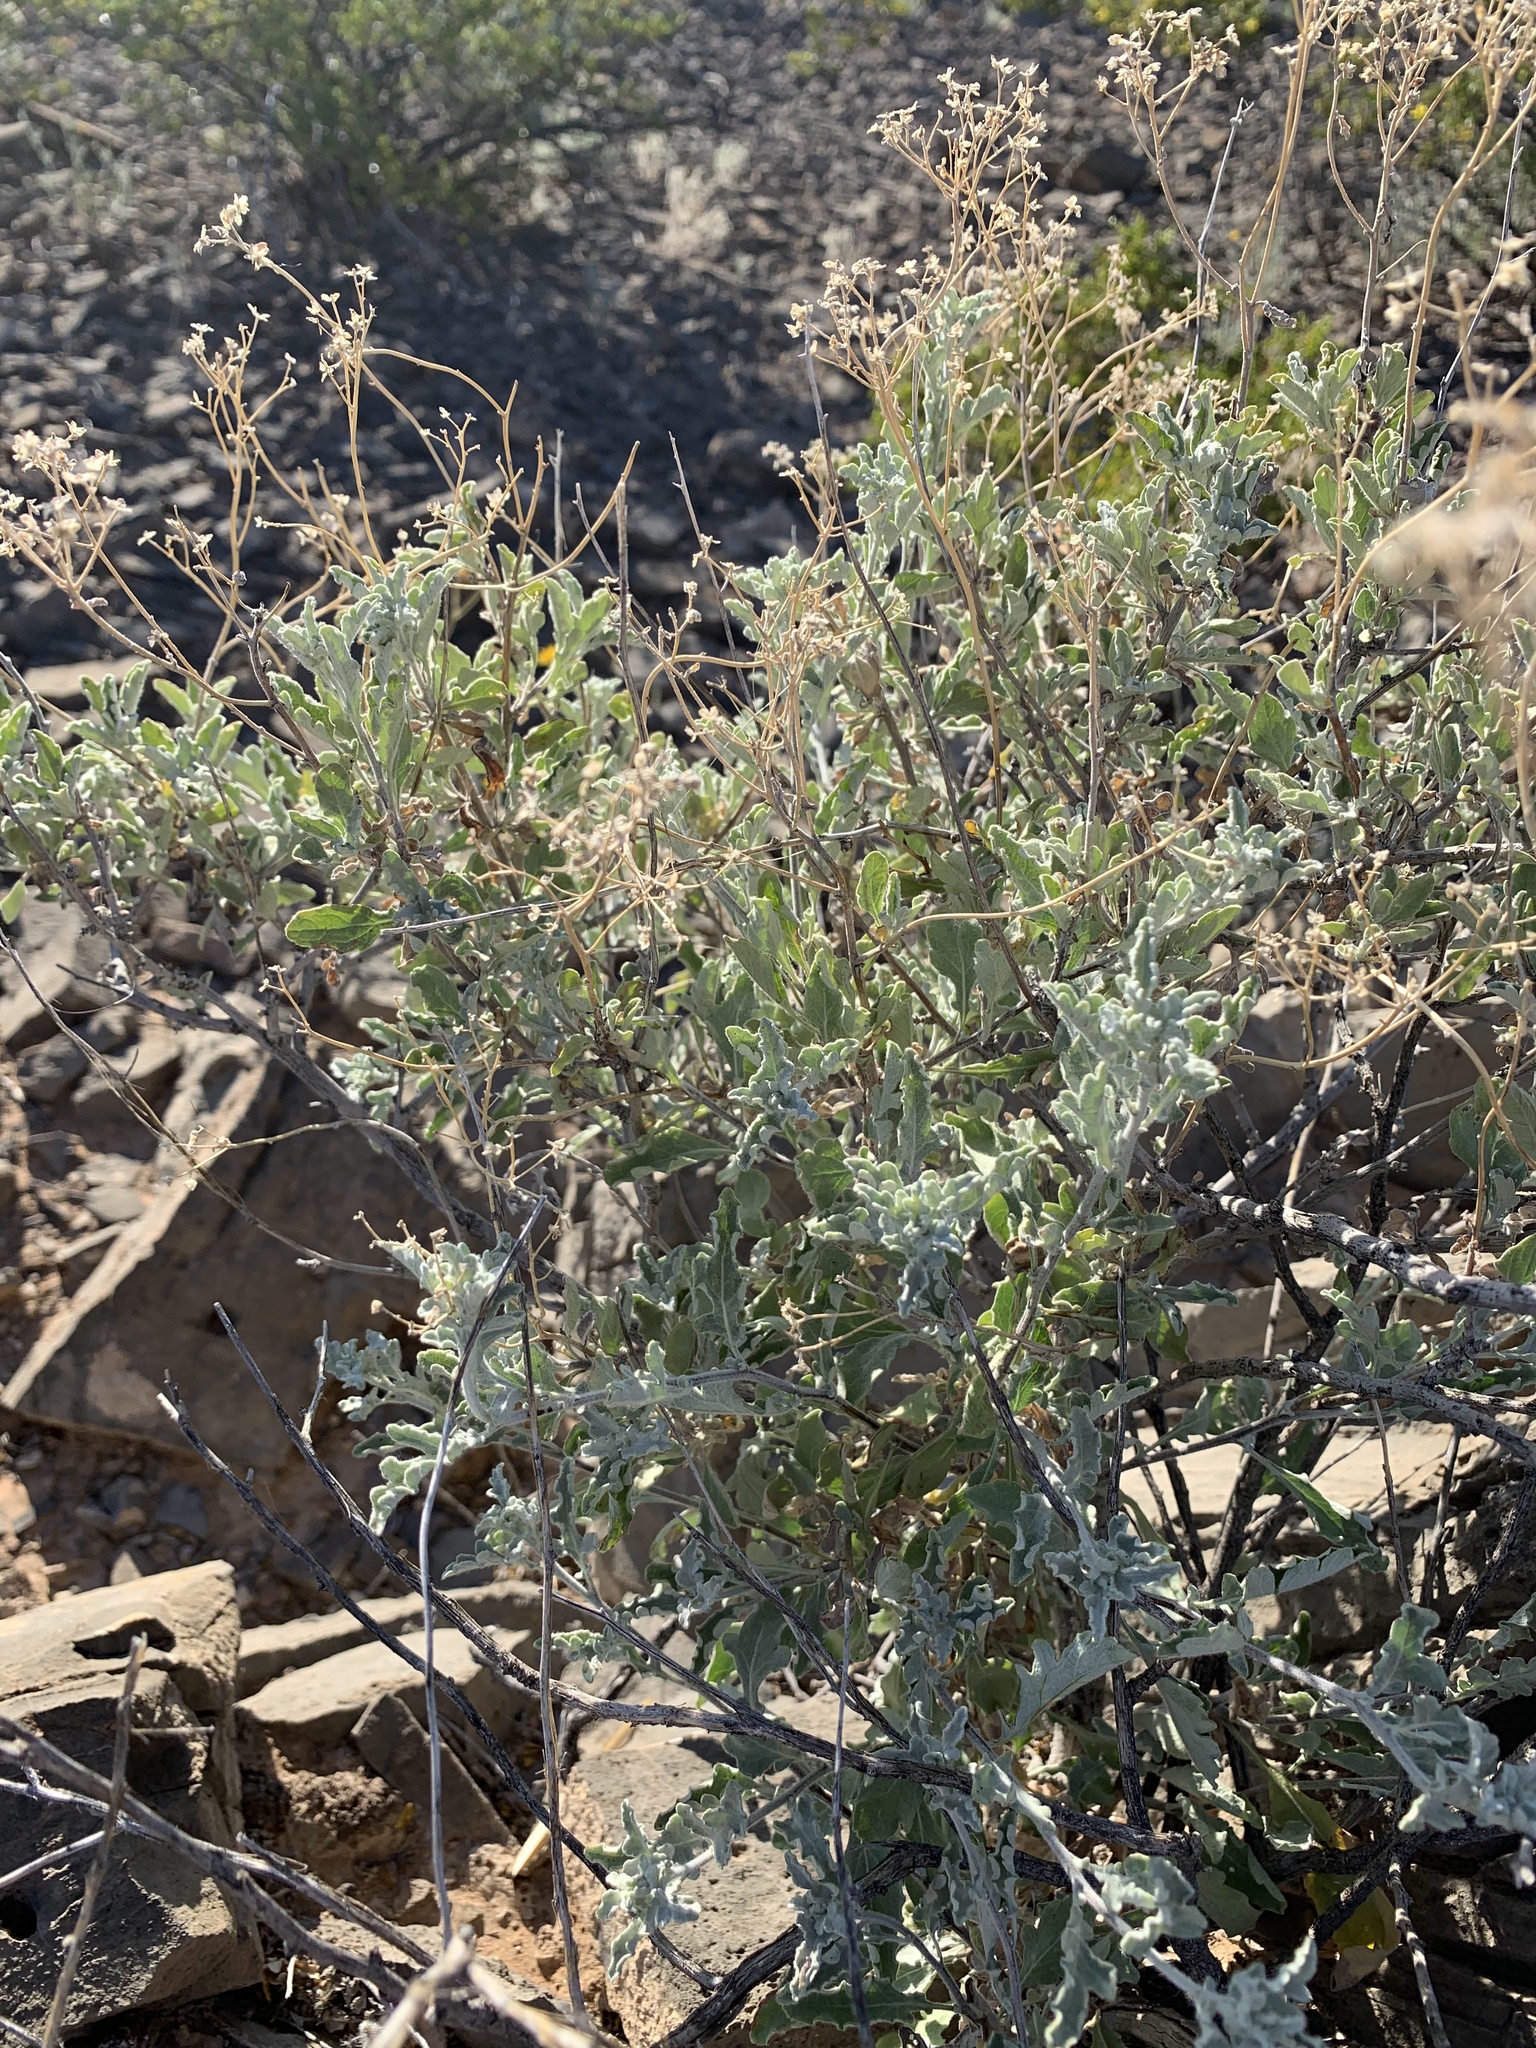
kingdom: Plantae
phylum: Tracheophyta
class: Magnoliopsida
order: Asterales
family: Asteraceae
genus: Parthenium
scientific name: Parthenium incanum
